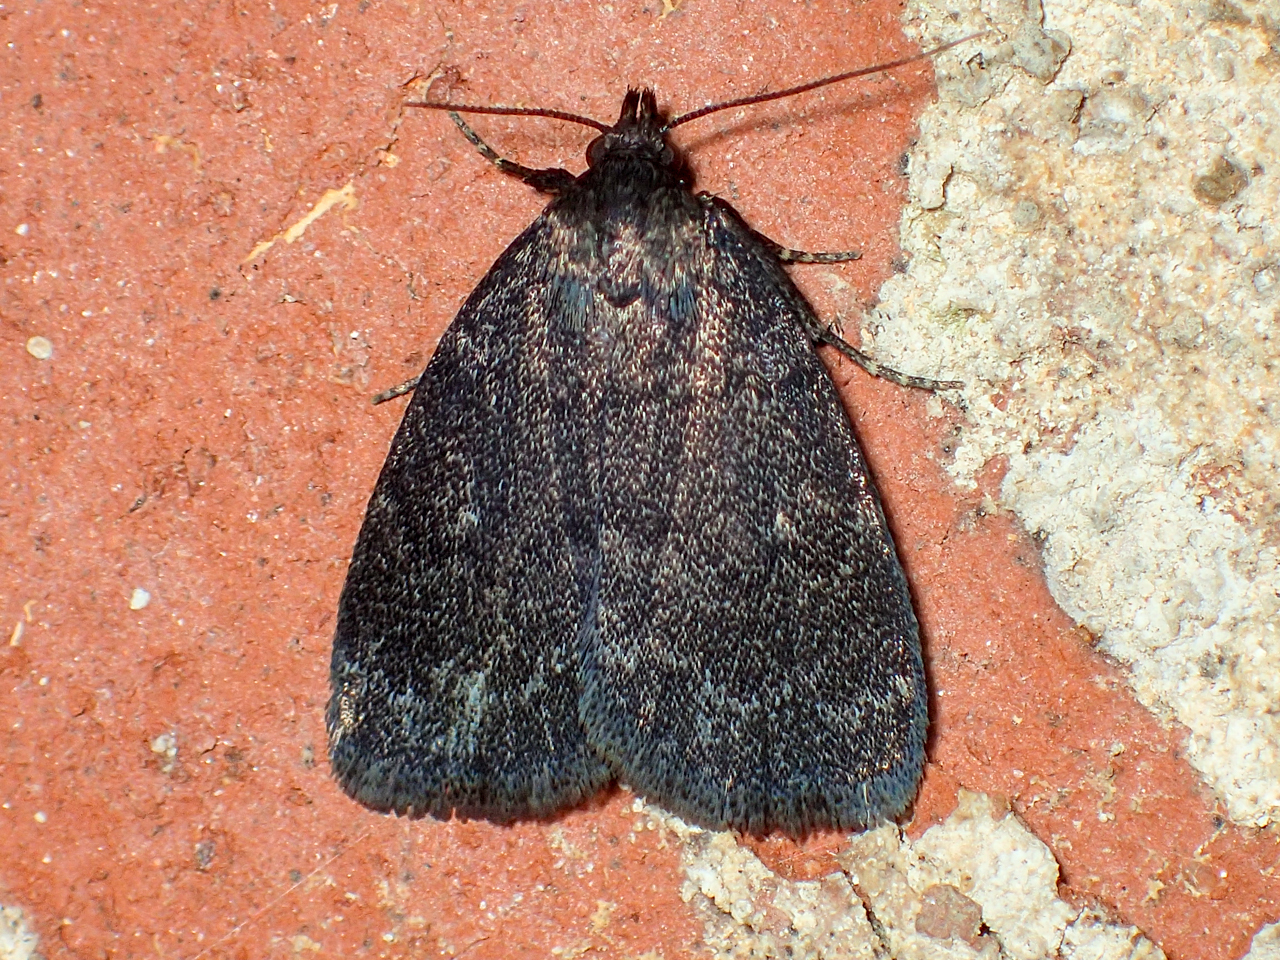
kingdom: Animalia
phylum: Arthropoda
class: Insecta
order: Lepidoptera
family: Erebidae
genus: Idia
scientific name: Idia rotundalis
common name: Rotund idia moth
